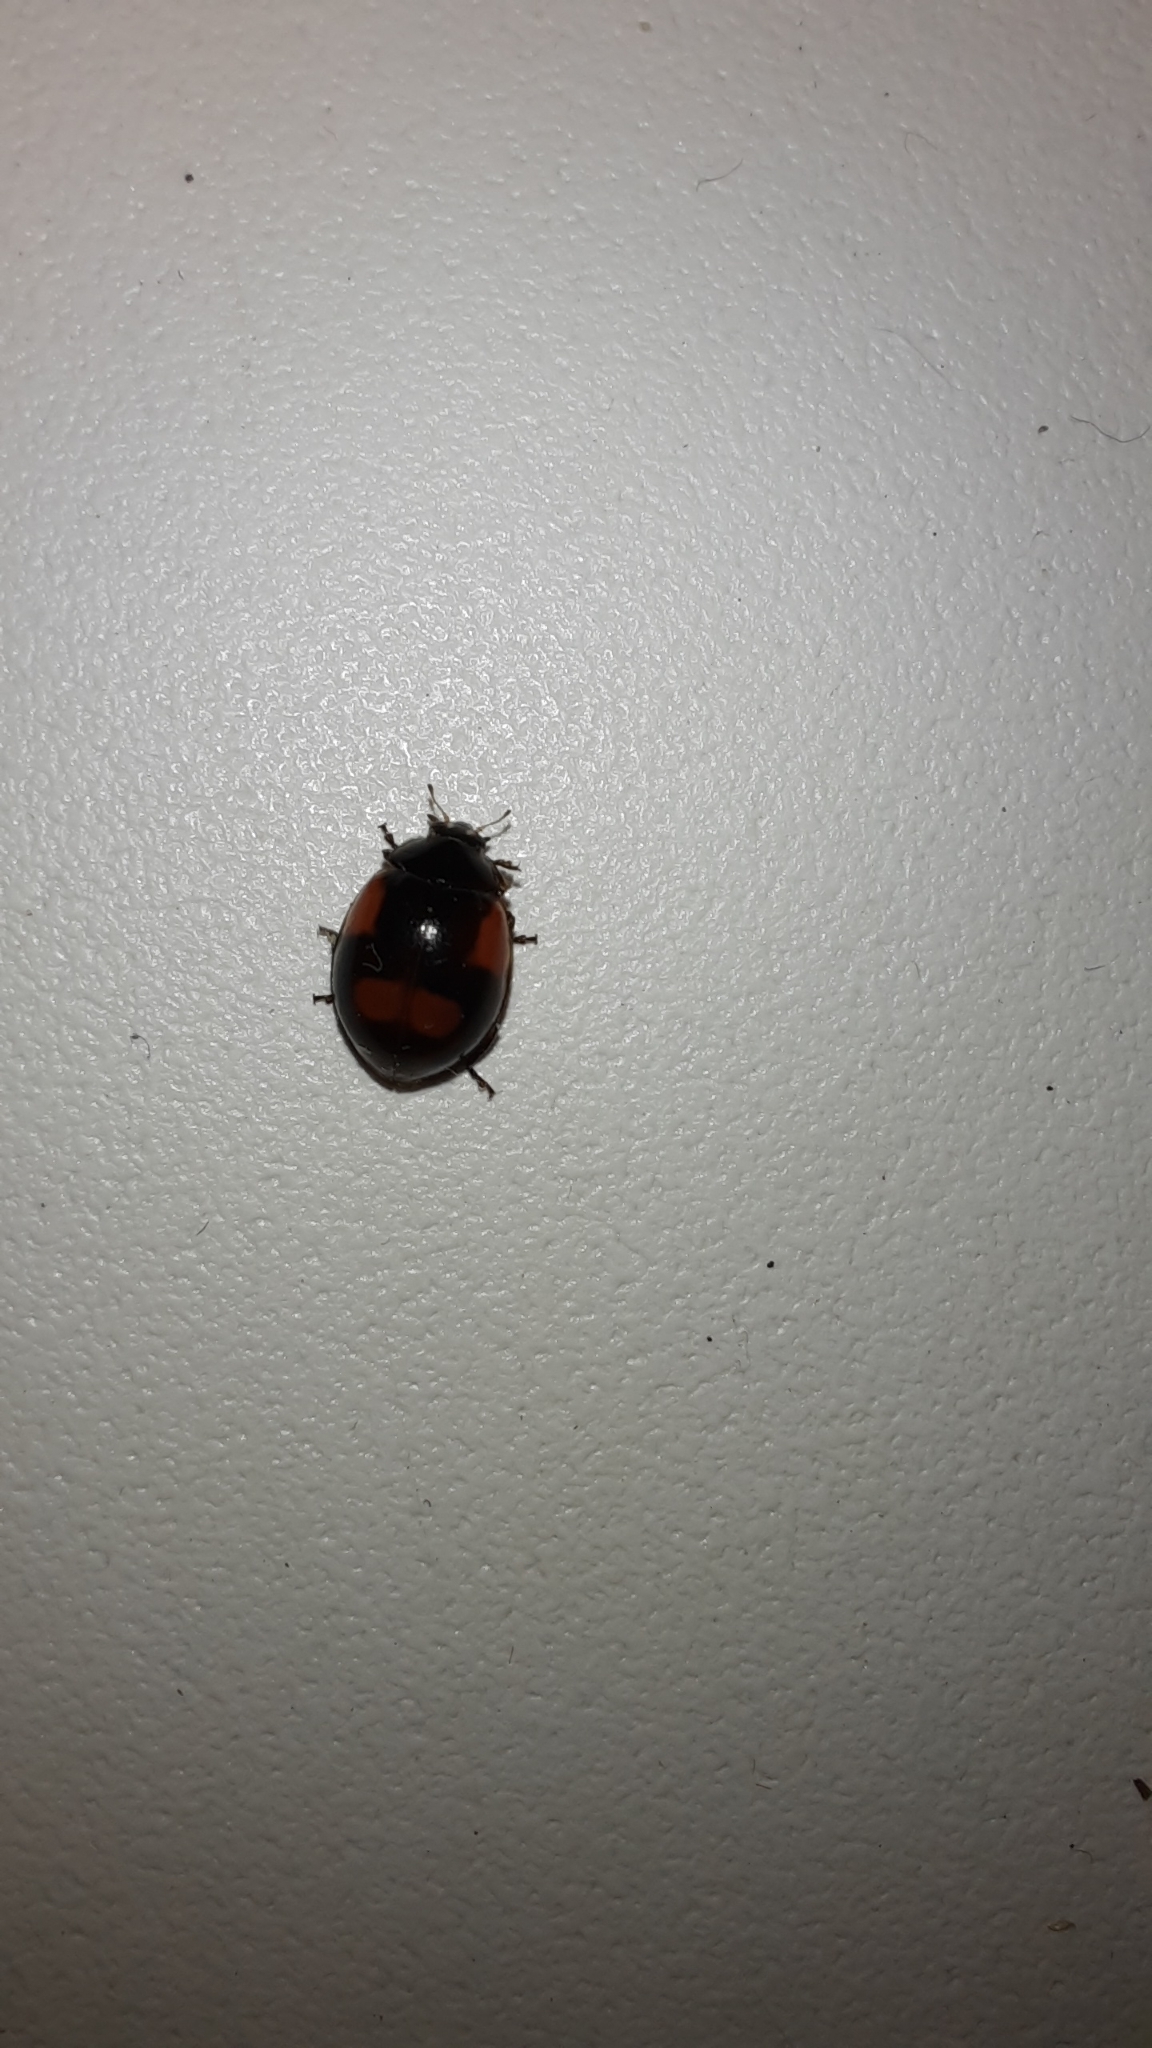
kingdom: Animalia
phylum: Arthropoda
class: Insecta
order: Coleoptera
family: Coccinellidae
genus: Adalia
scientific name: Adalia bipunctata
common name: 2-spot ladybird
